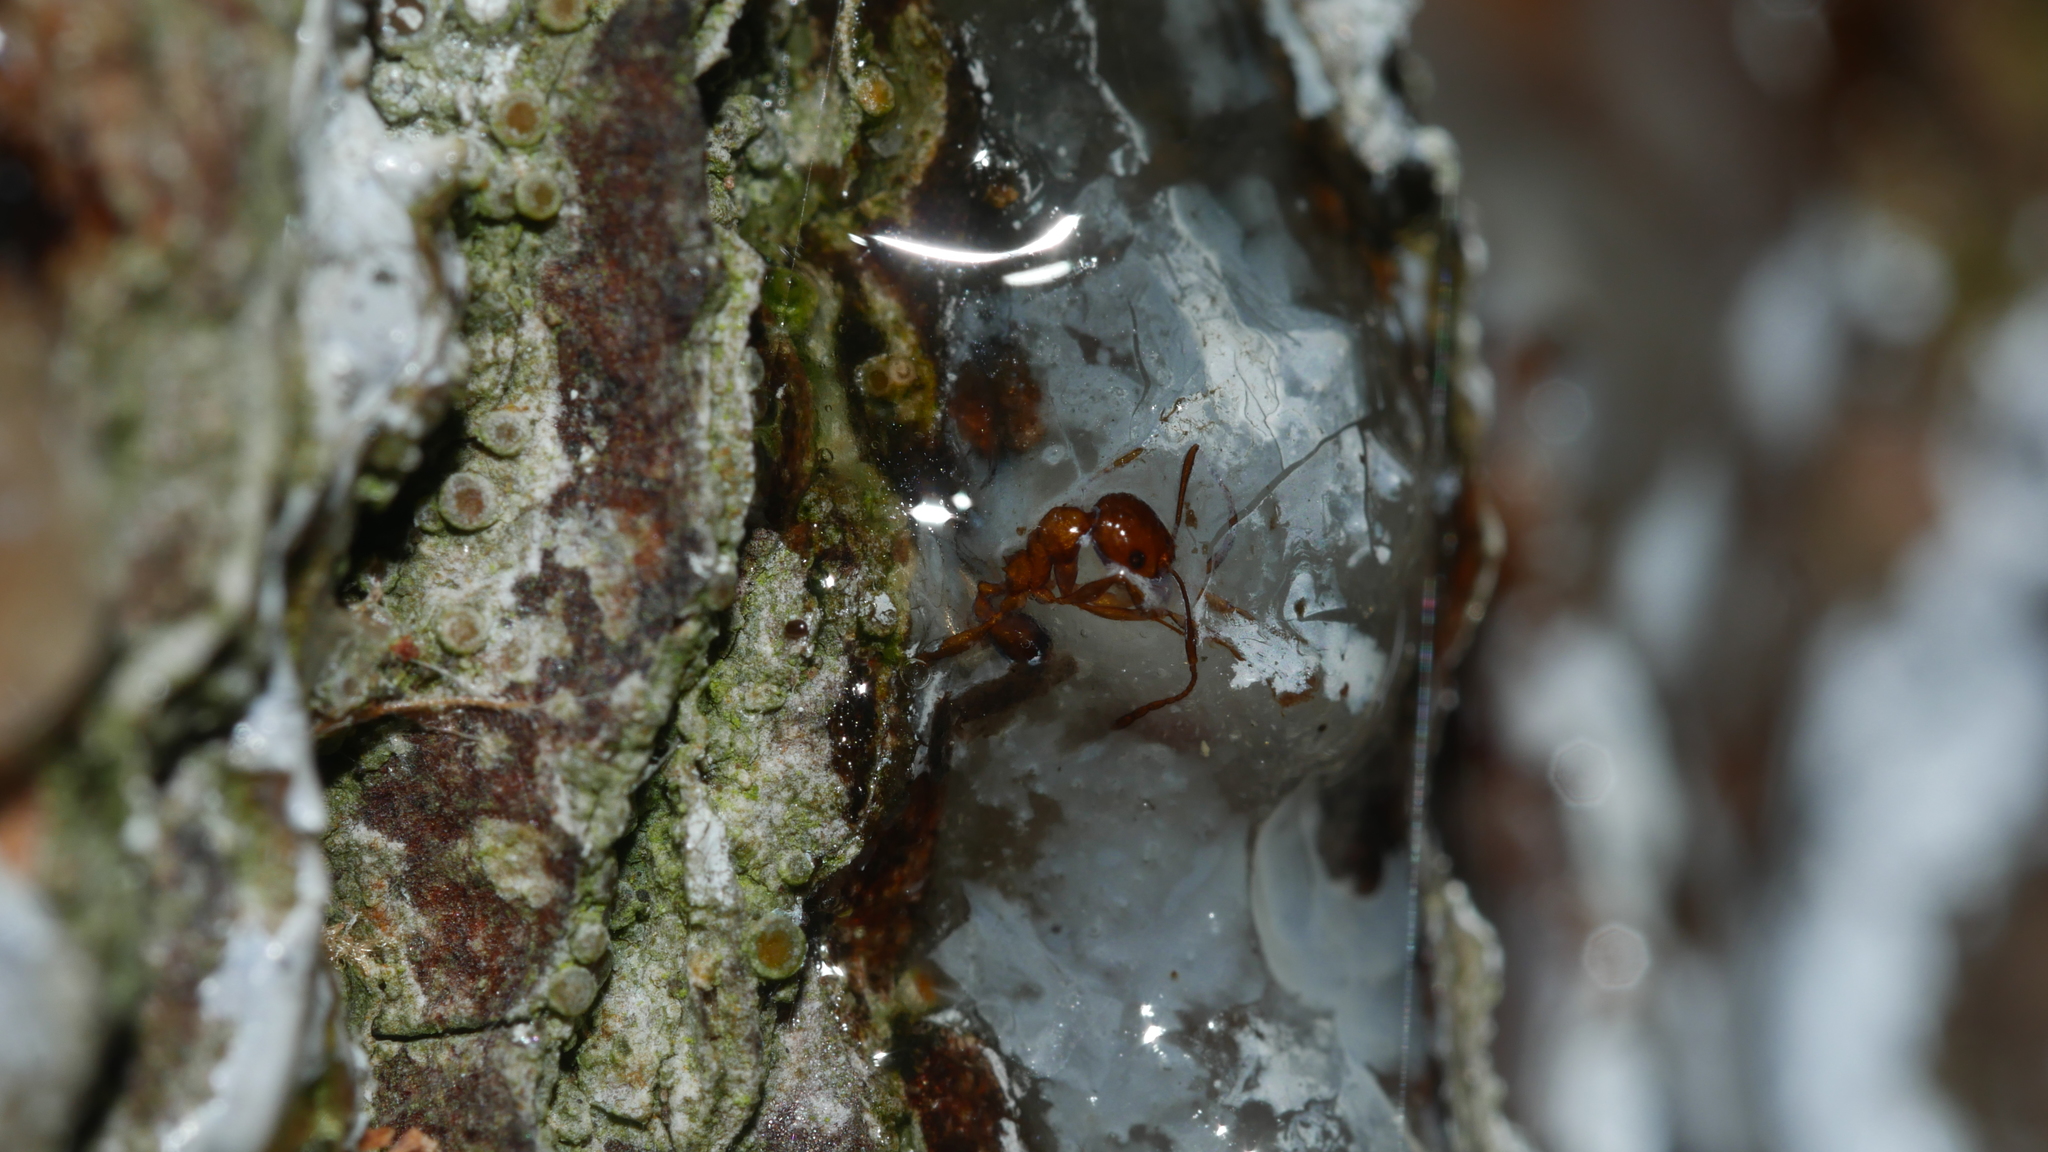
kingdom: Animalia
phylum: Arthropoda
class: Insecta
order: Hymenoptera
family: Formicidae
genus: Pheidole
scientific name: Pheidole dentata
